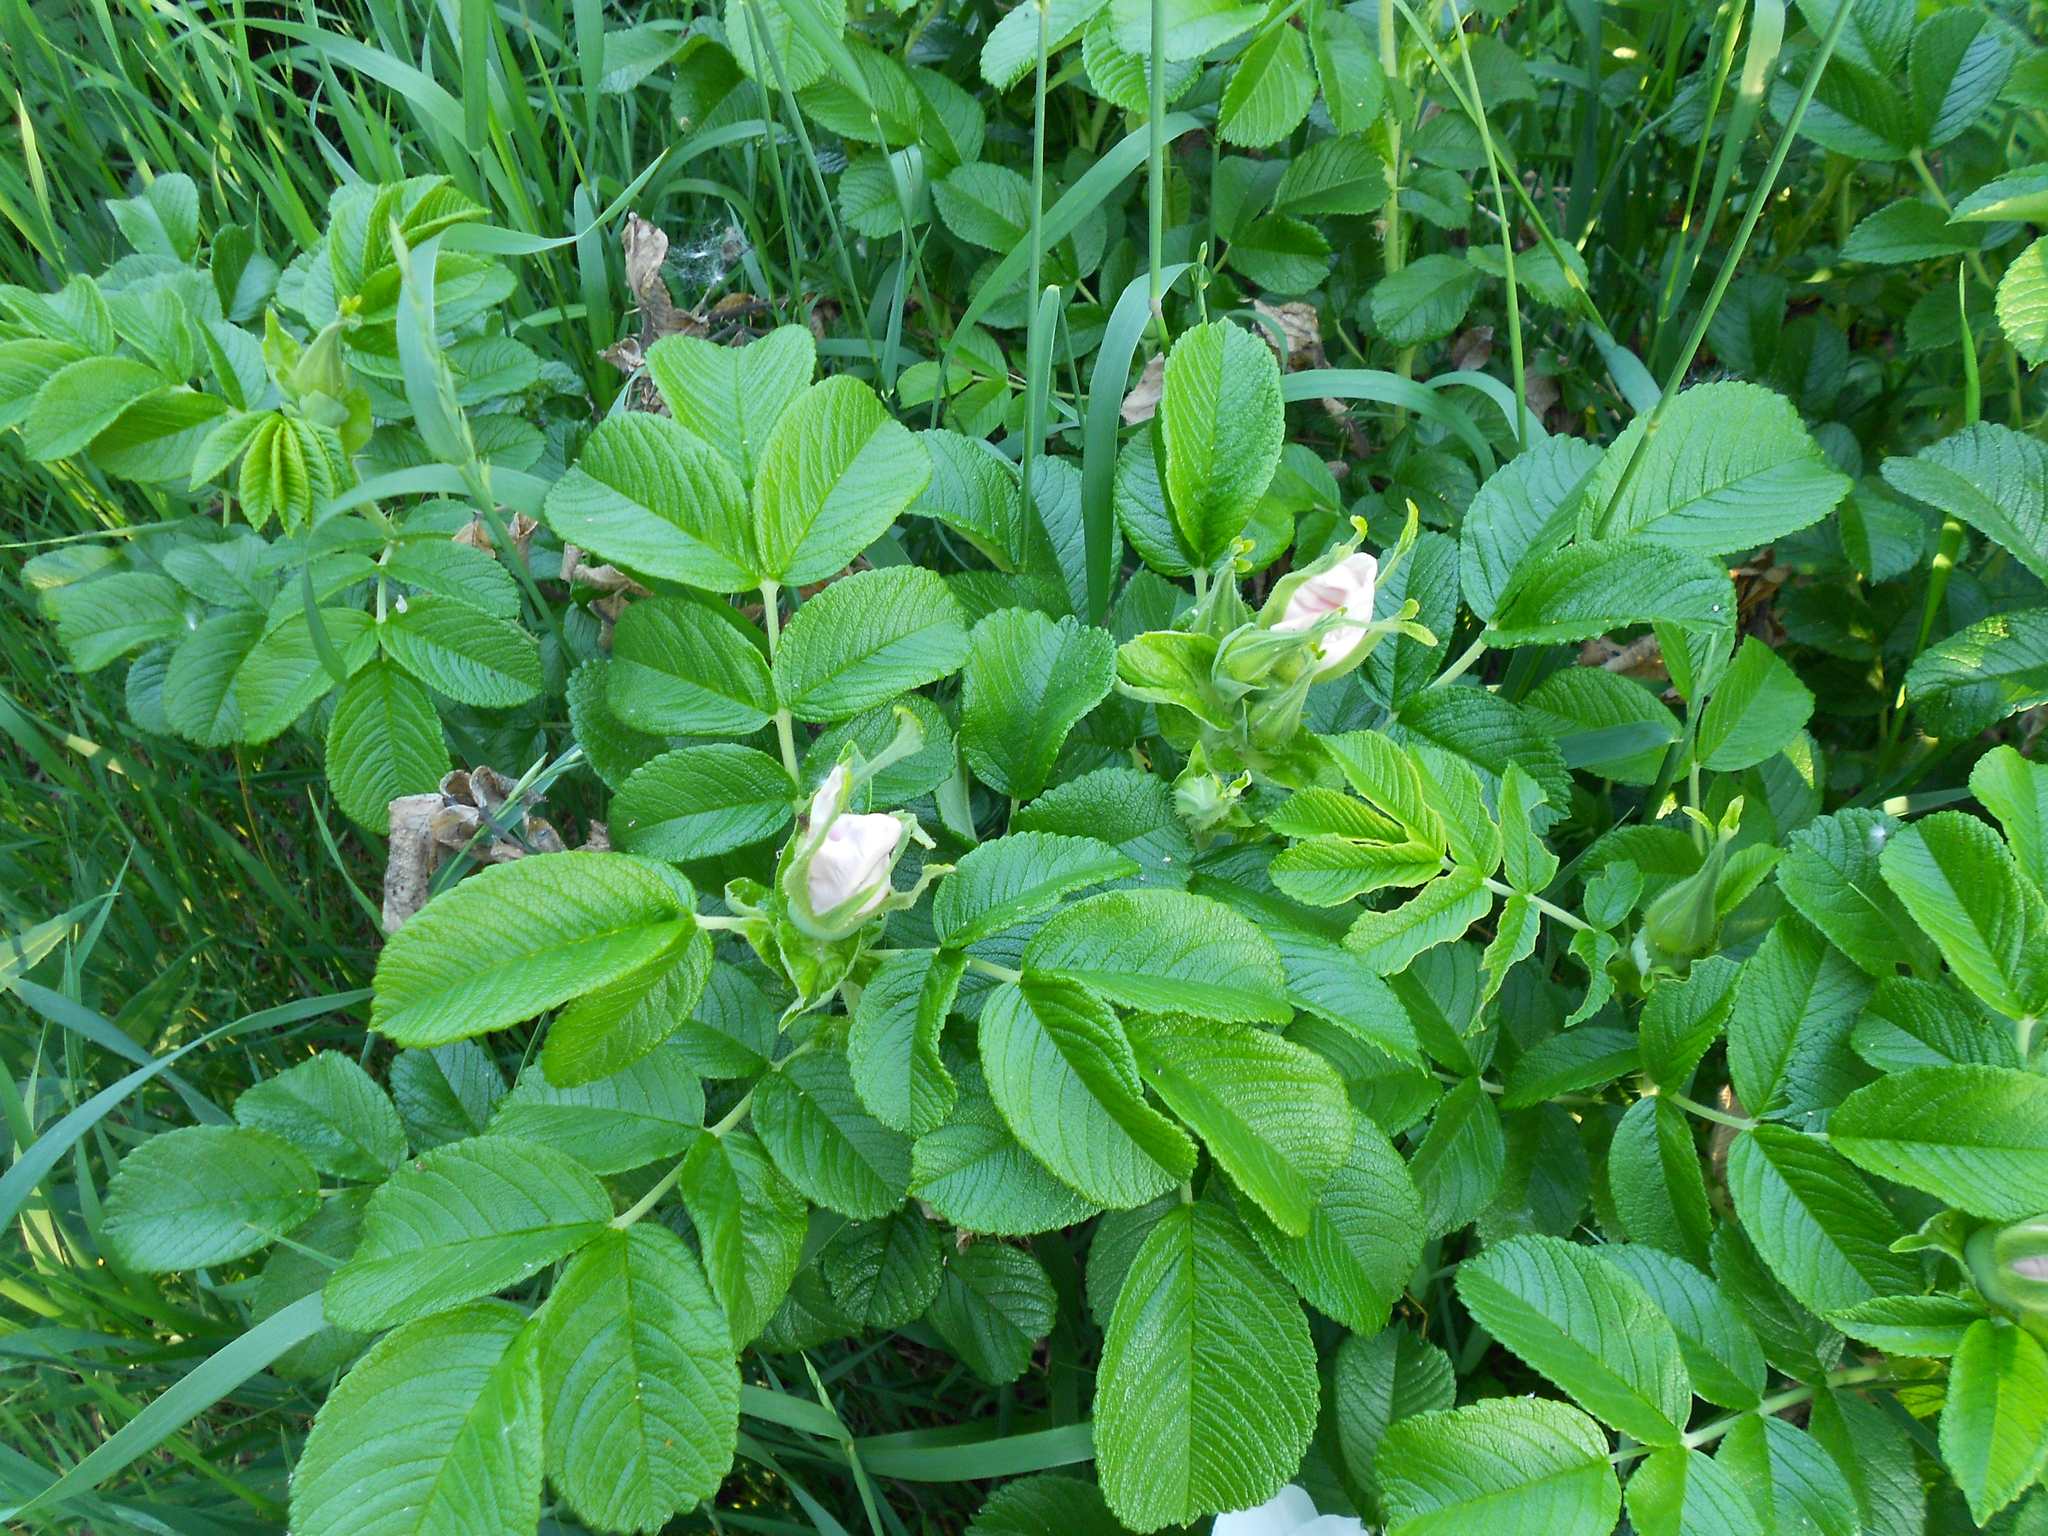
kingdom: Plantae
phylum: Tracheophyta
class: Magnoliopsida
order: Rosales
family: Rosaceae
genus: Rosa
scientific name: Rosa rugosa
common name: Japanese rose
